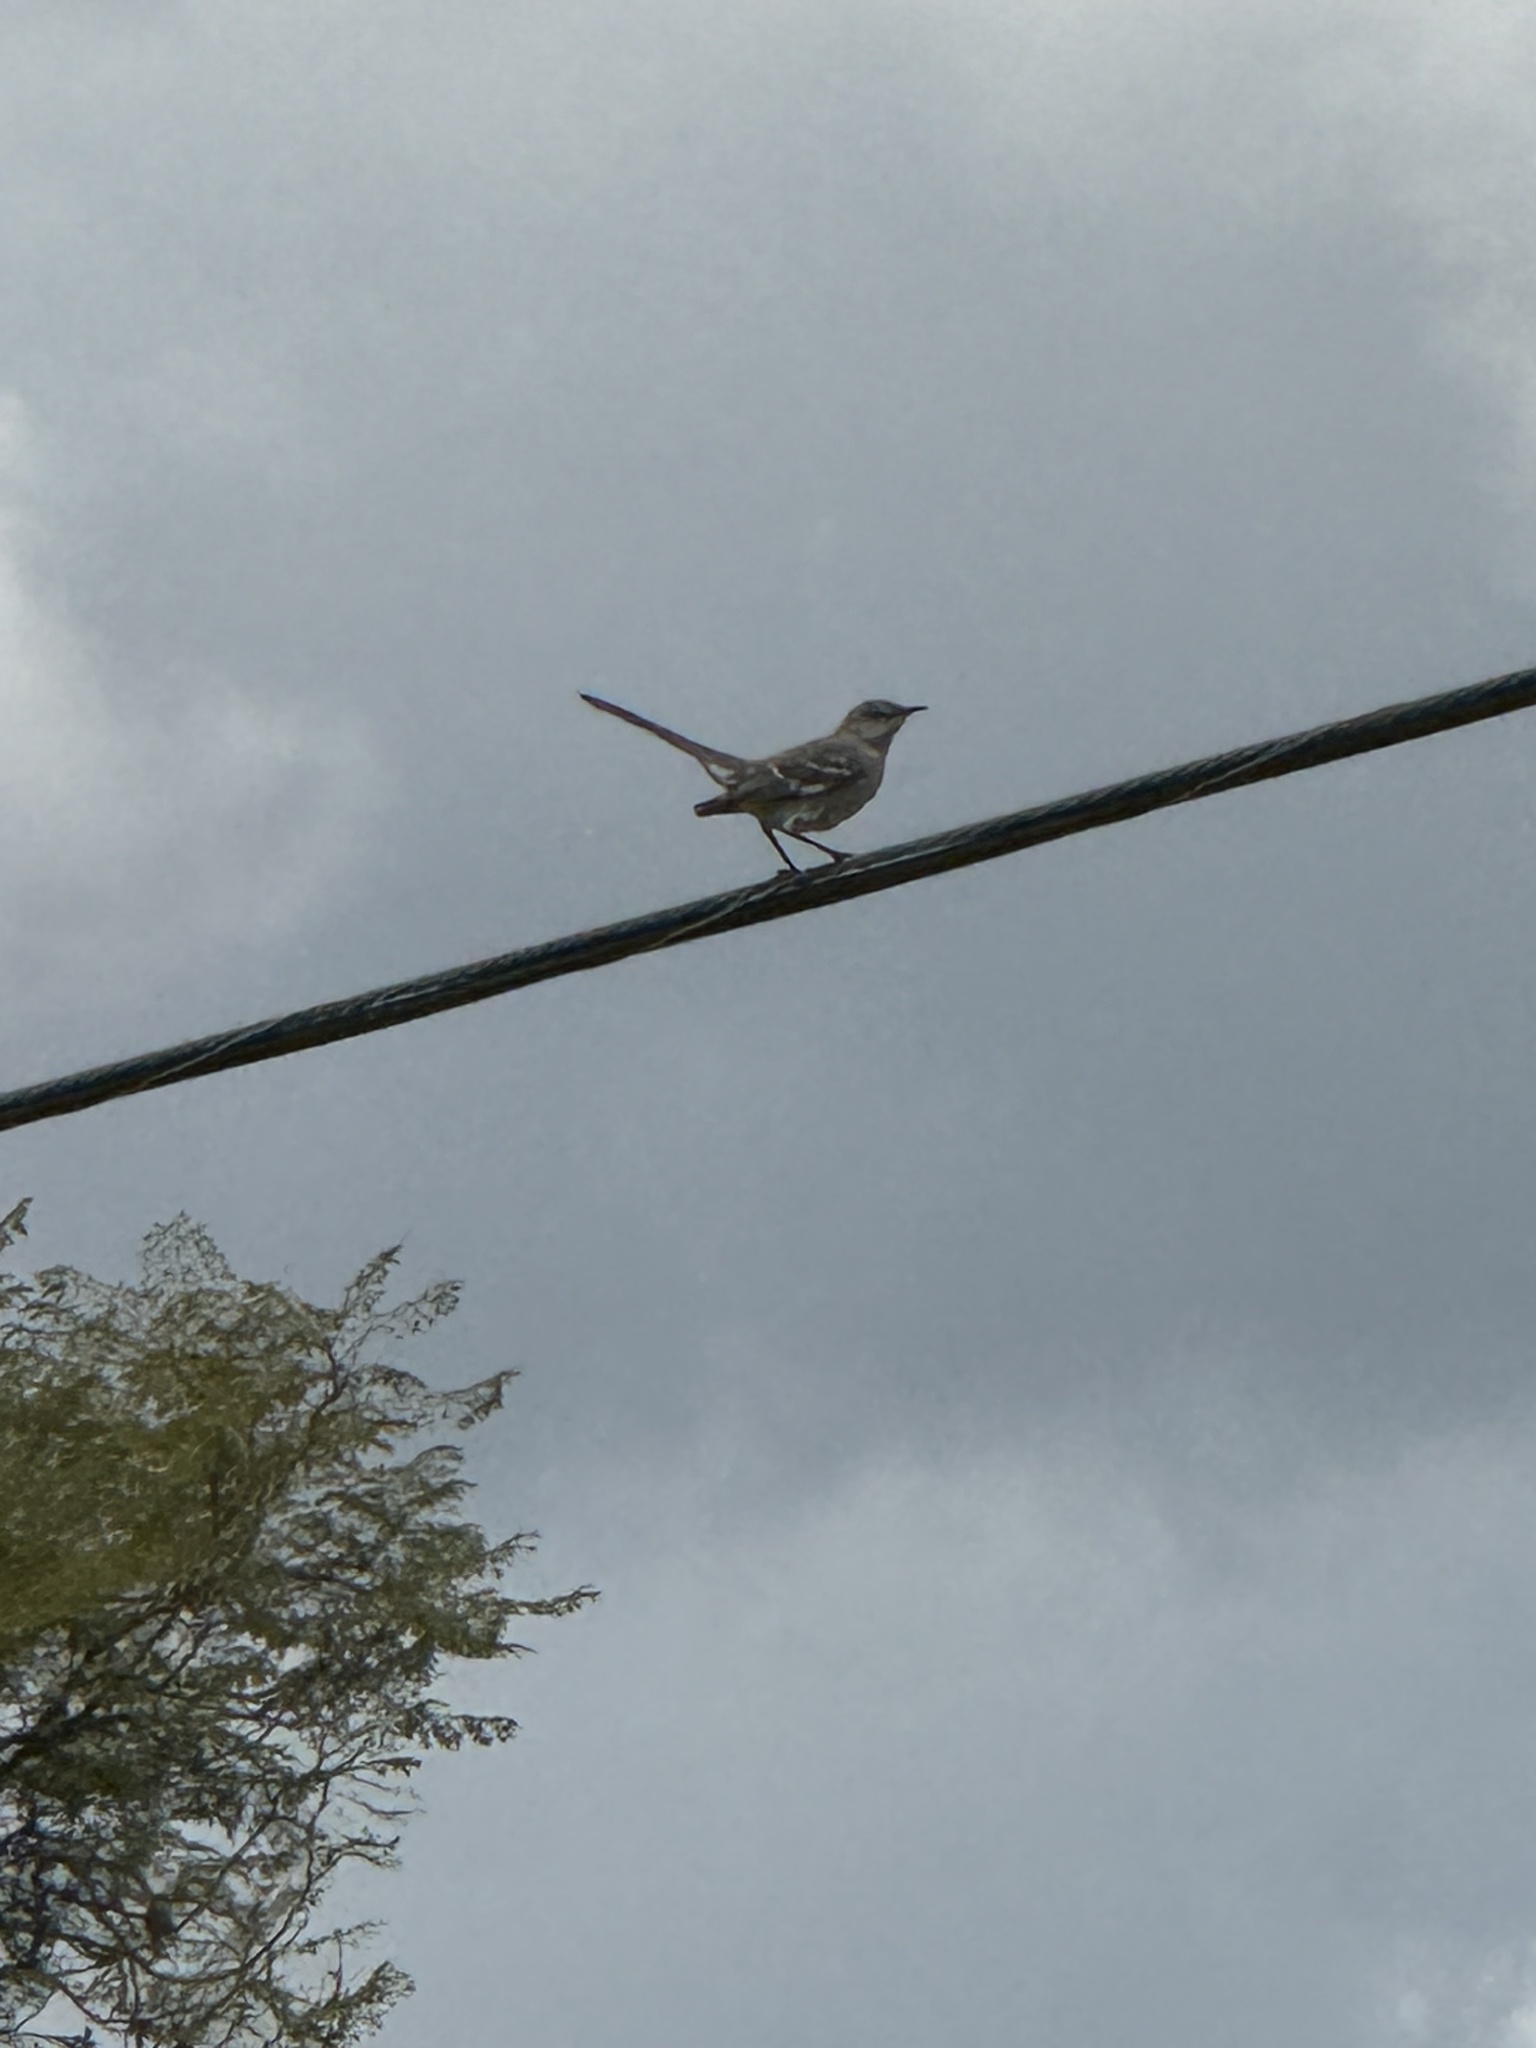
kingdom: Animalia
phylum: Chordata
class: Aves
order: Passeriformes
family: Mimidae
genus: Mimus
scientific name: Mimus polyglottos
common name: Northern mockingbird
